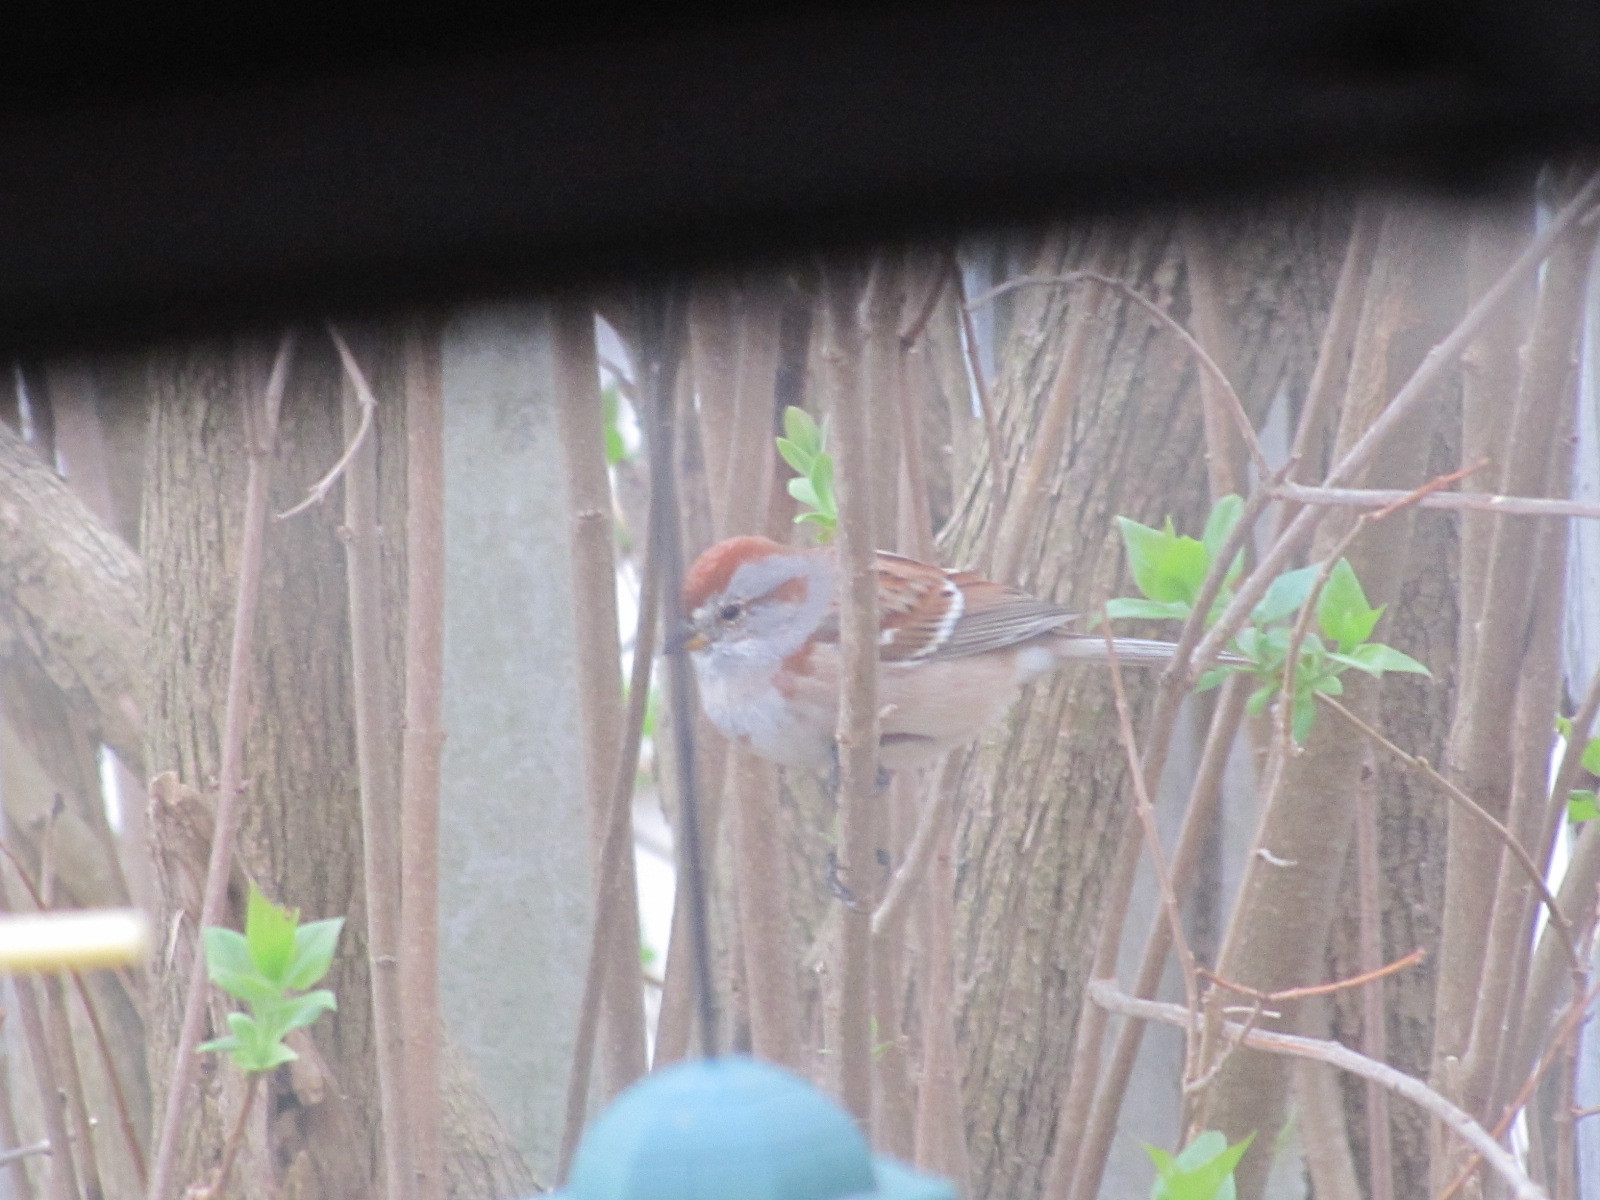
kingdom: Animalia
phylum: Chordata
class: Aves
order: Passeriformes
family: Passerellidae
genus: Spizelloides
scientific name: Spizelloides arborea
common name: American tree sparrow
